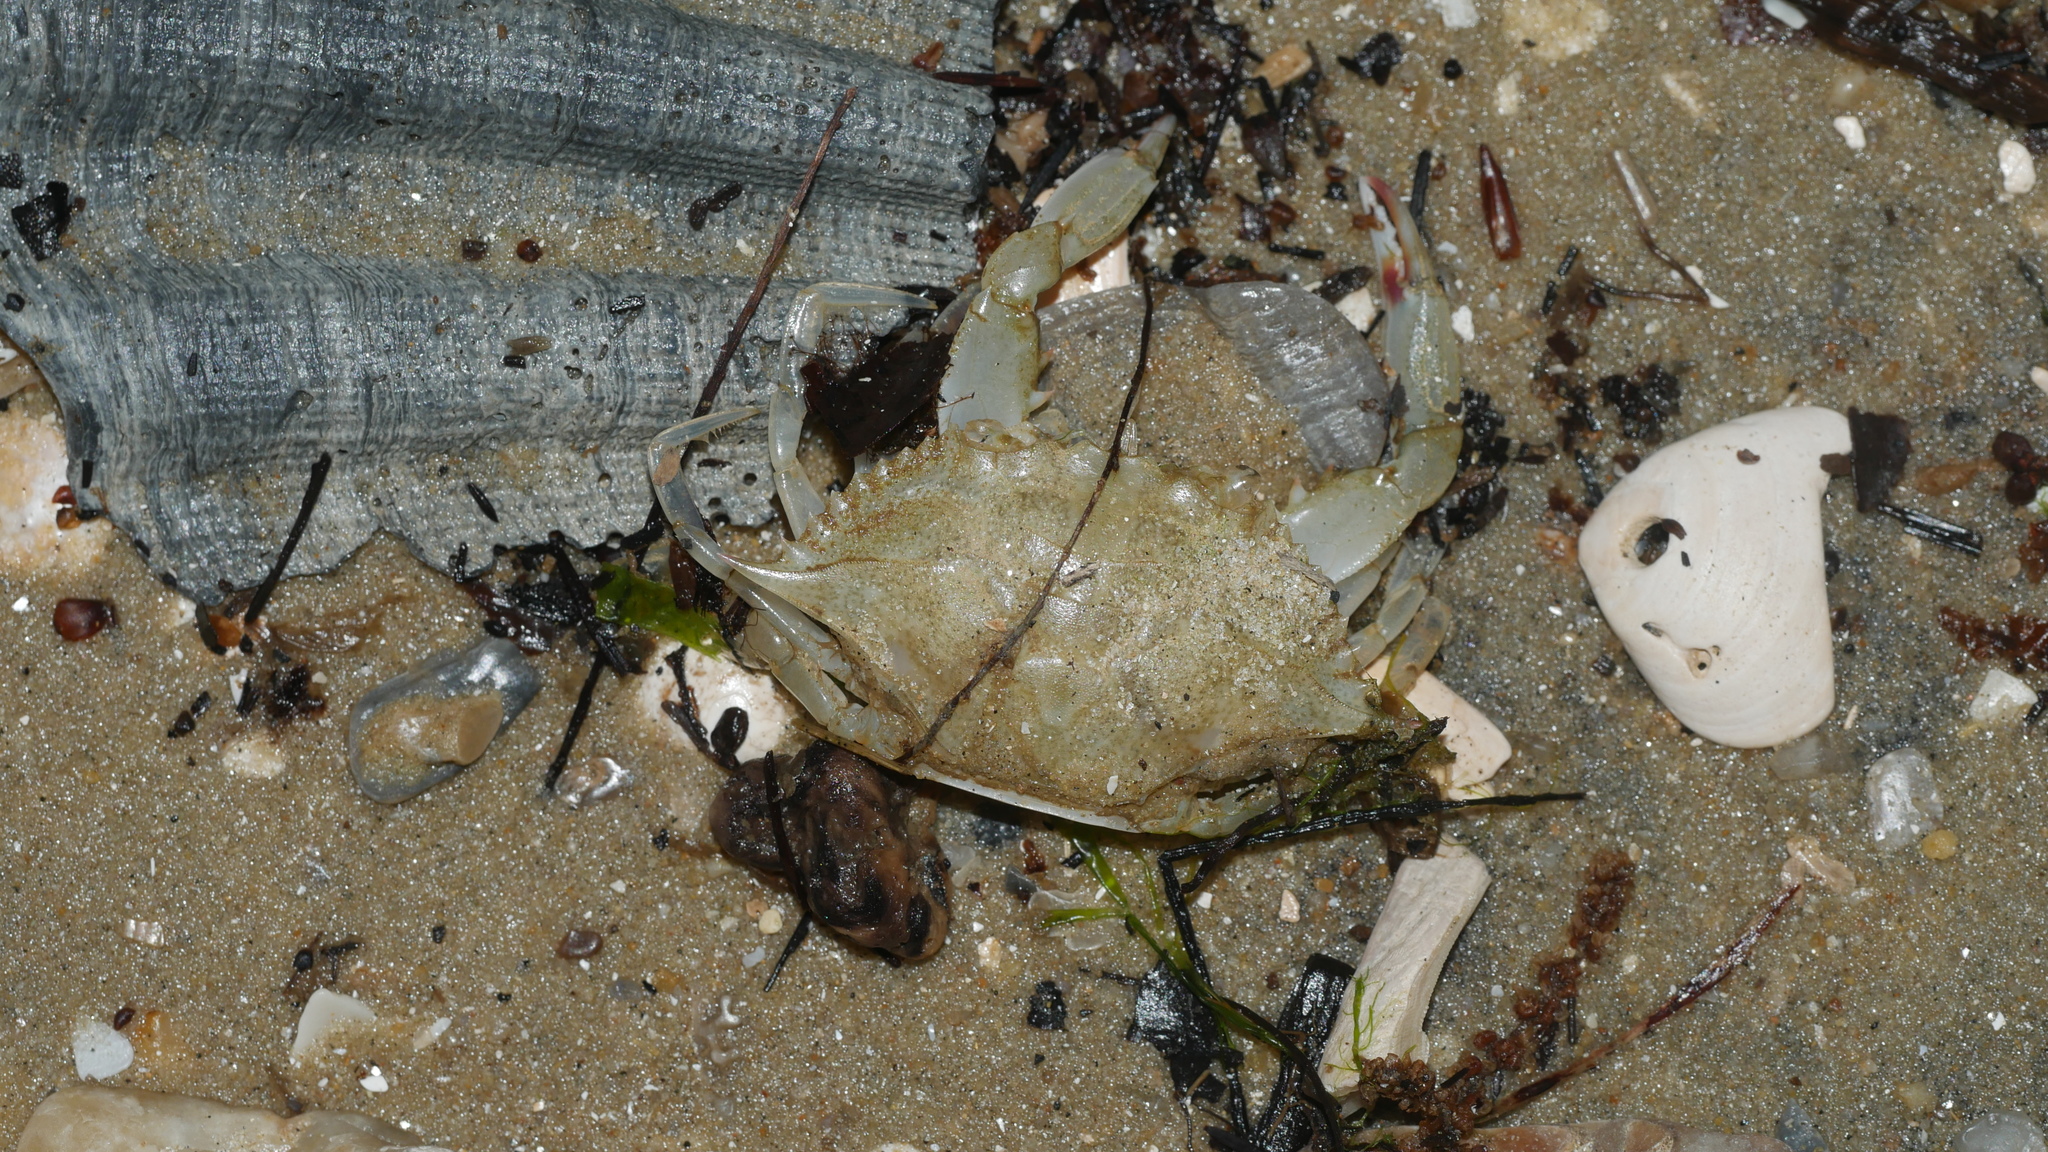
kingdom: Animalia
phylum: Arthropoda
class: Malacostraca
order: Decapoda
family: Portunidae
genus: Callinectes
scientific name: Callinectes sapidus
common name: Blue crab
